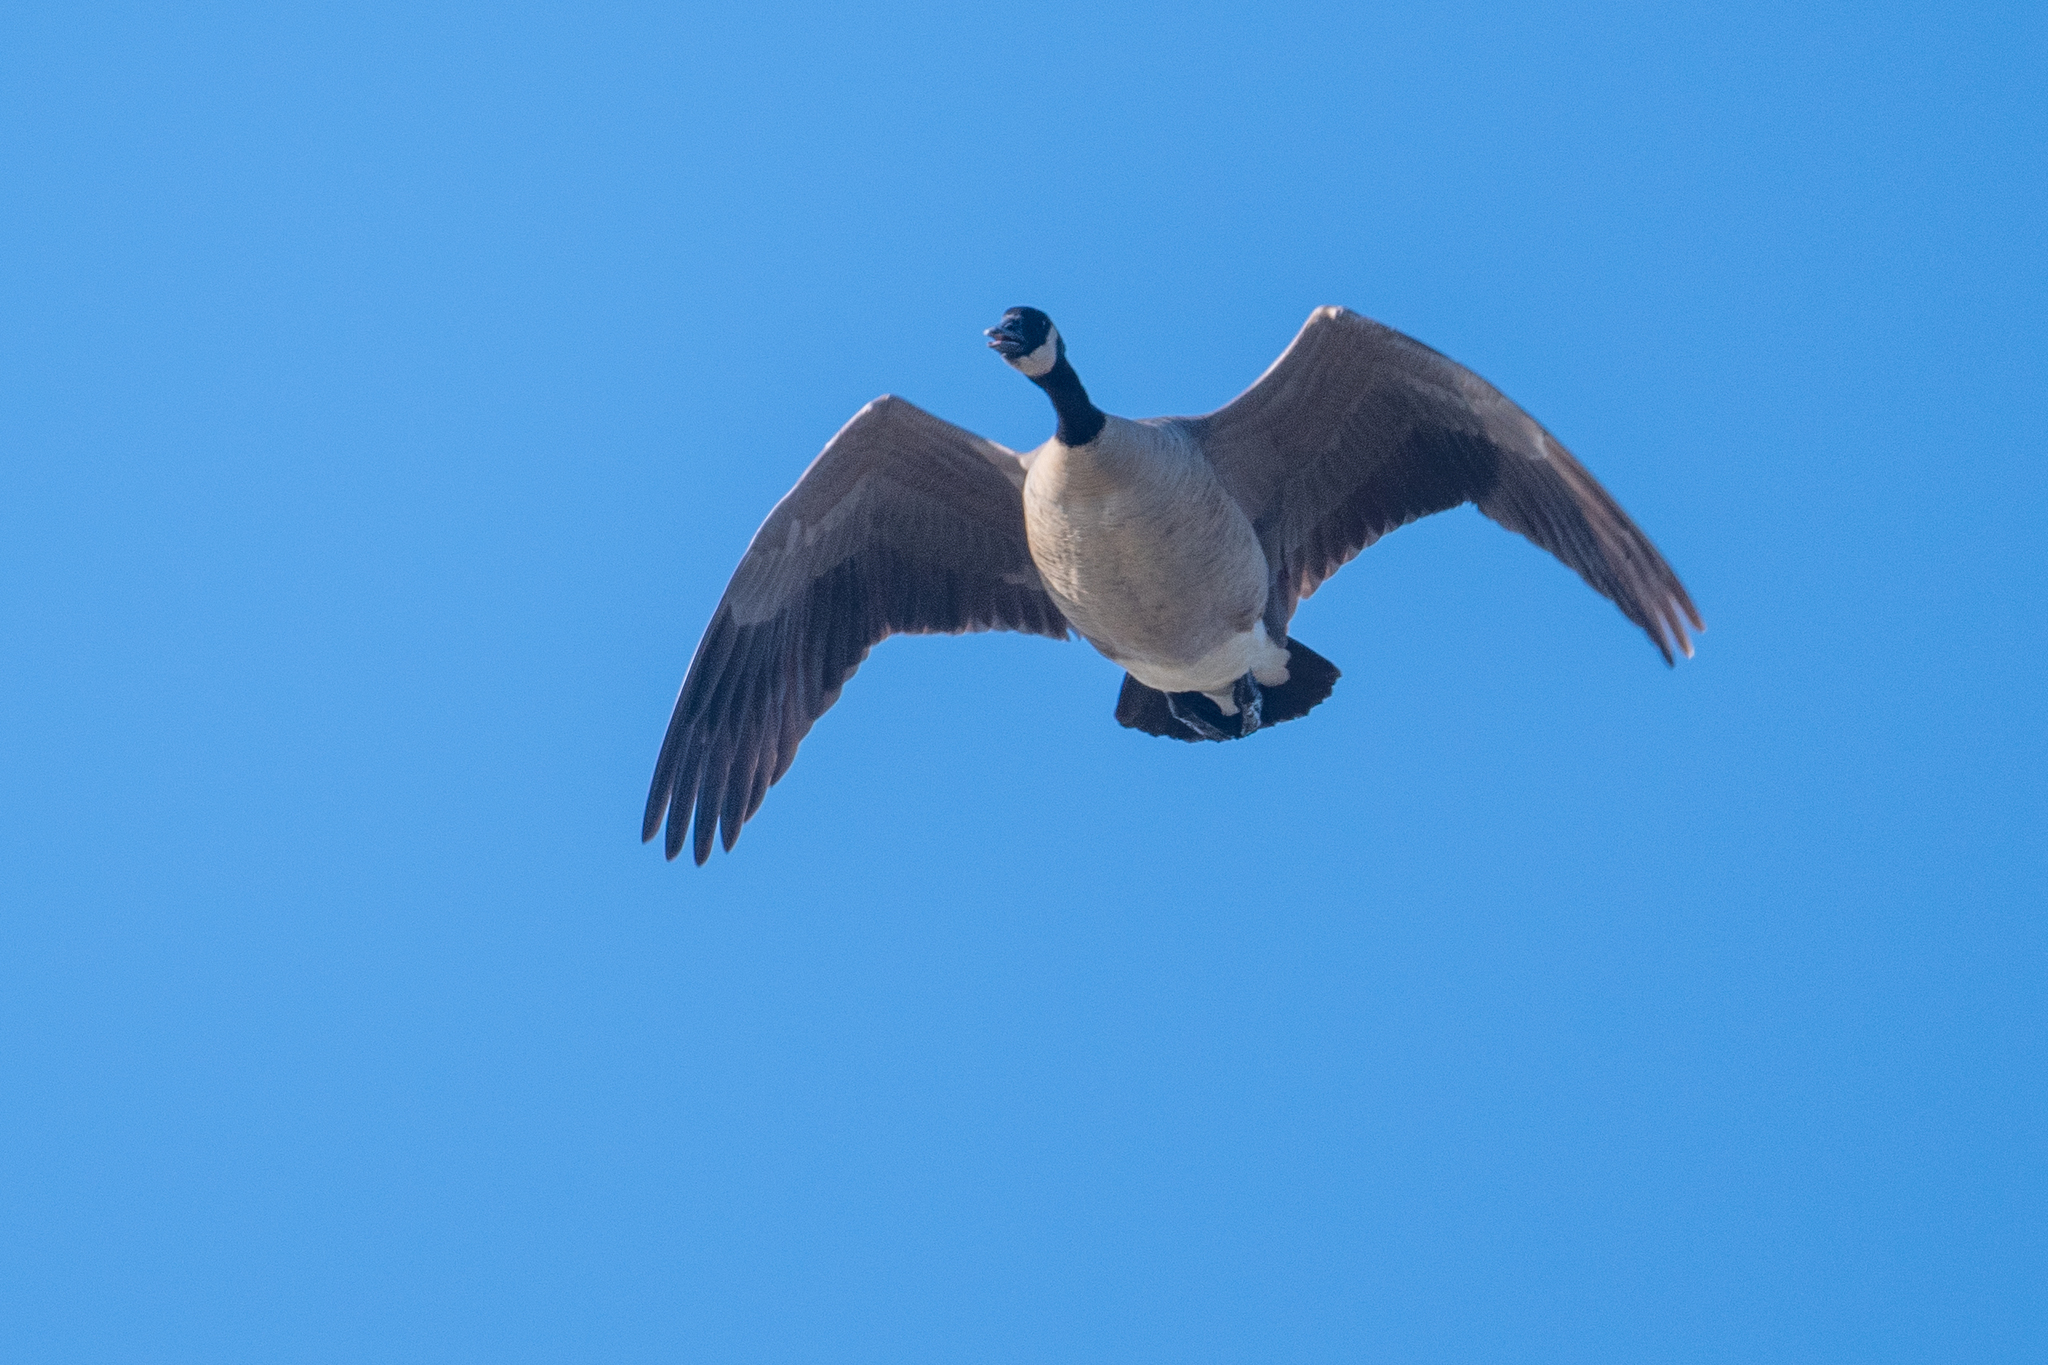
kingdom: Animalia
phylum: Chordata
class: Aves
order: Anseriformes
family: Anatidae
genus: Branta
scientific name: Branta canadensis
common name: Canada goose
